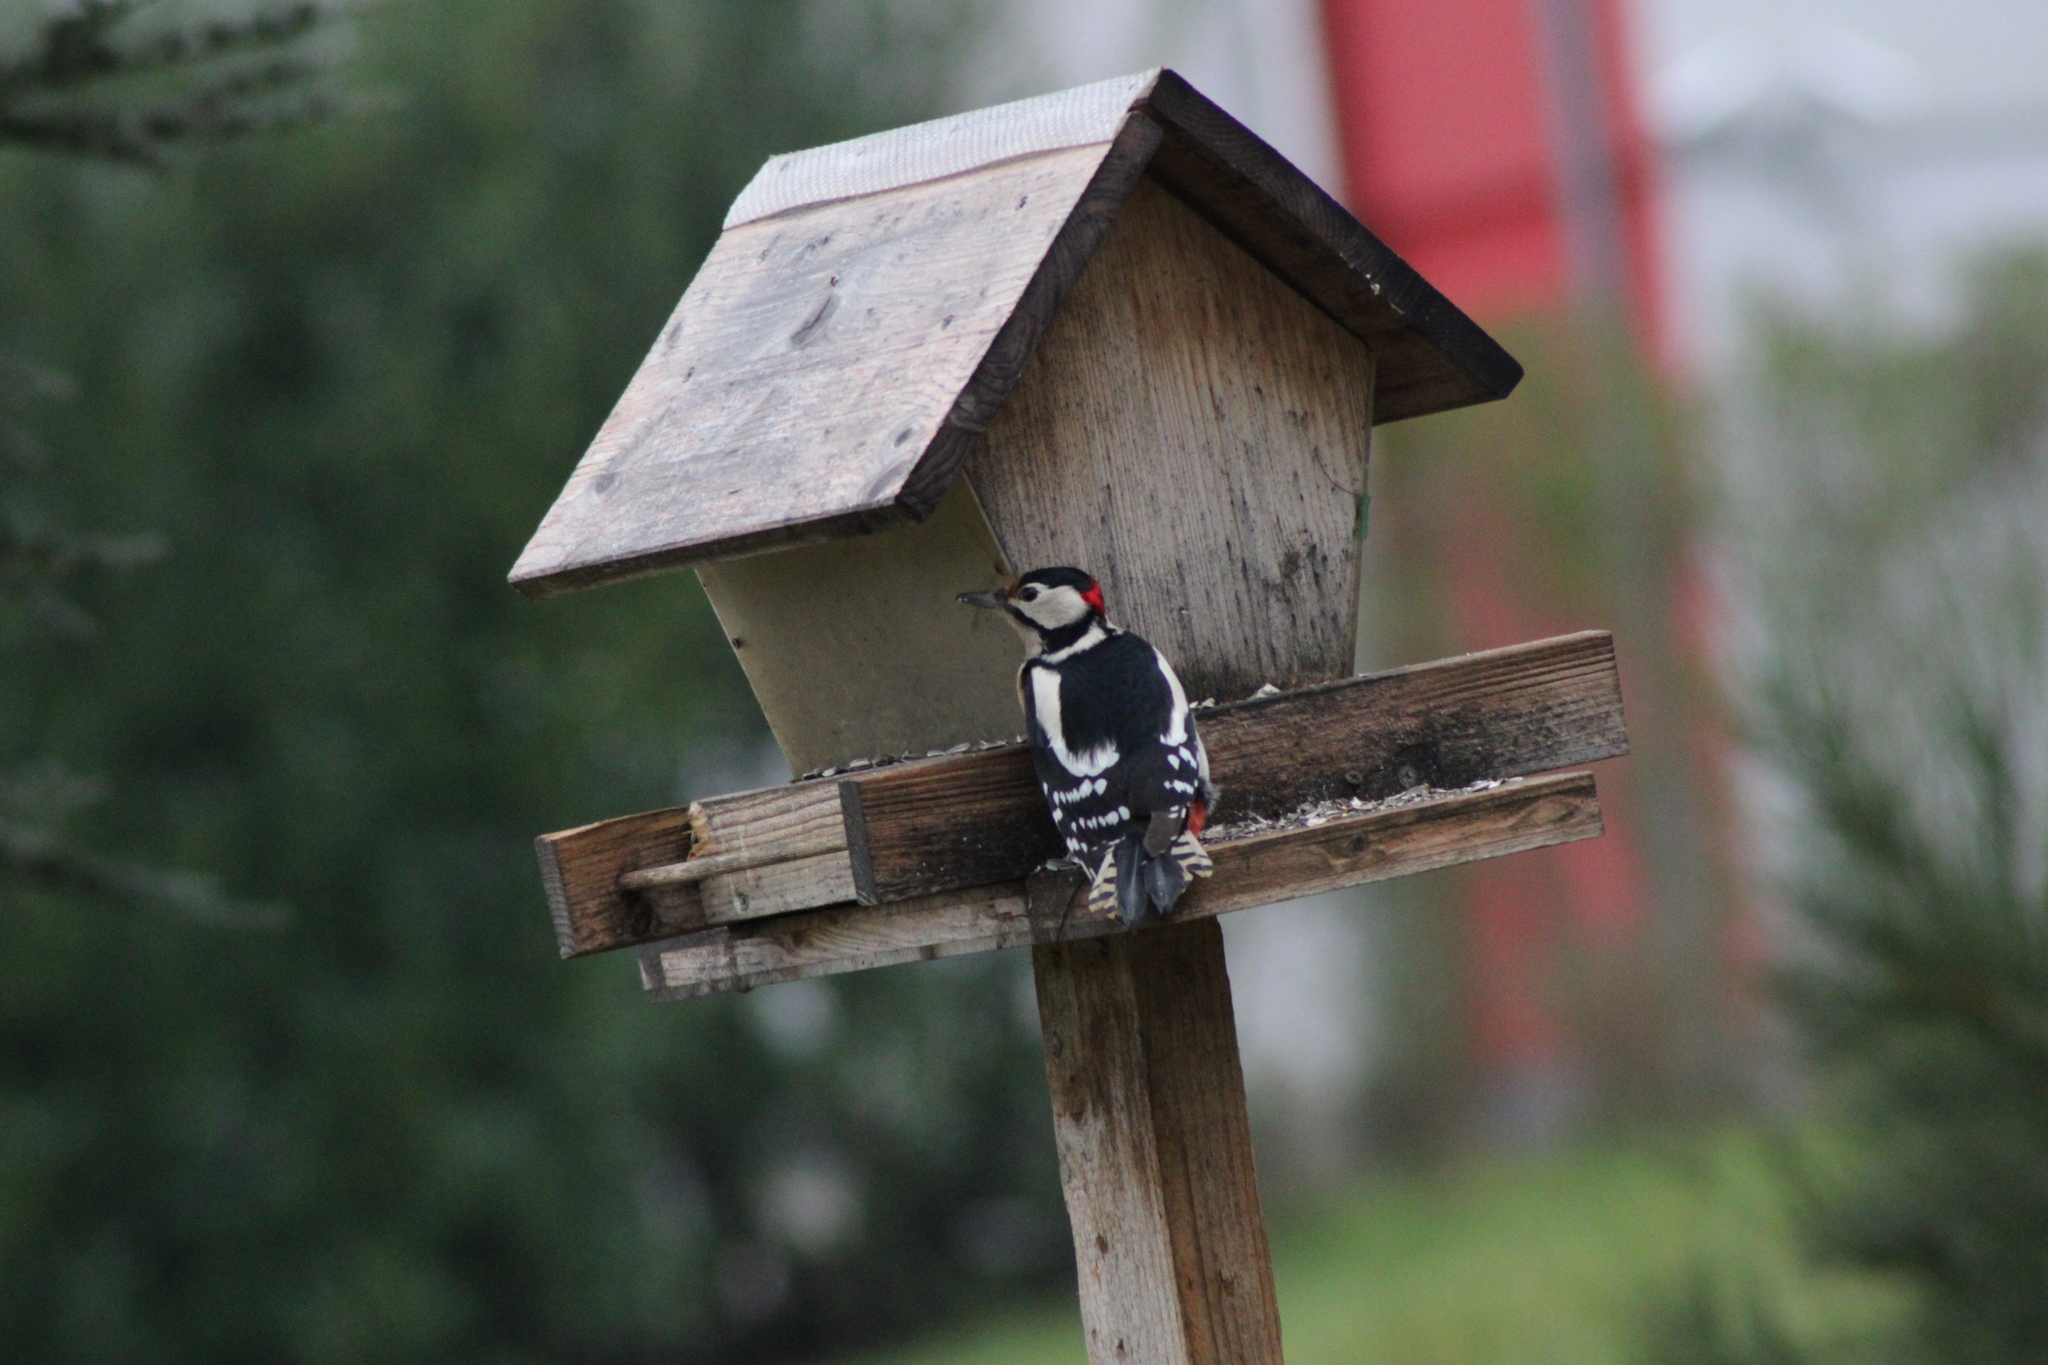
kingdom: Animalia
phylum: Chordata
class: Aves
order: Piciformes
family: Picidae
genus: Dendrocopos
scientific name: Dendrocopos major
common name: Great spotted woodpecker
